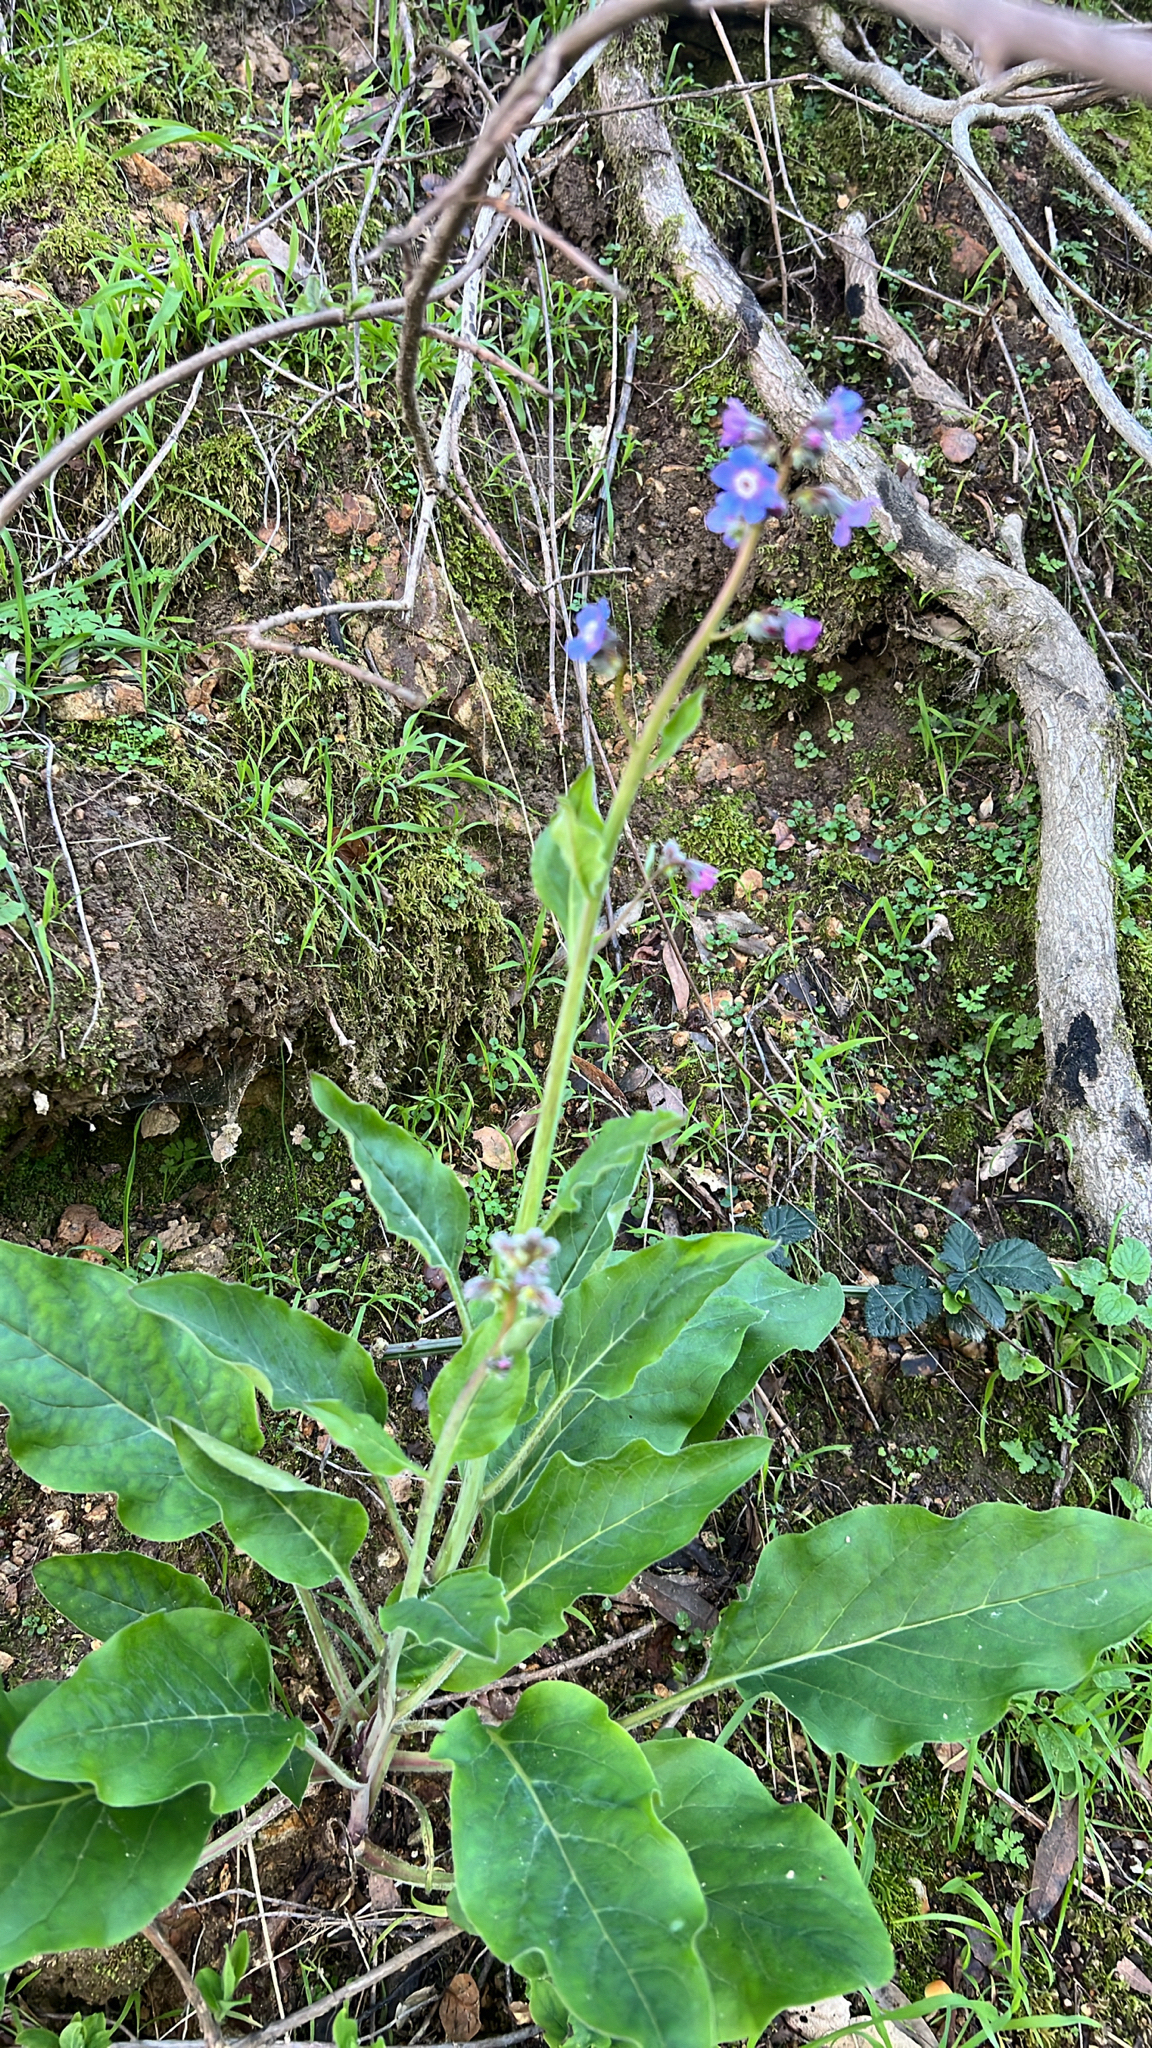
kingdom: Plantae
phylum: Tracheophyta
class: Magnoliopsida
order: Boraginales
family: Boraginaceae
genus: Adelinia
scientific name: Adelinia grande
